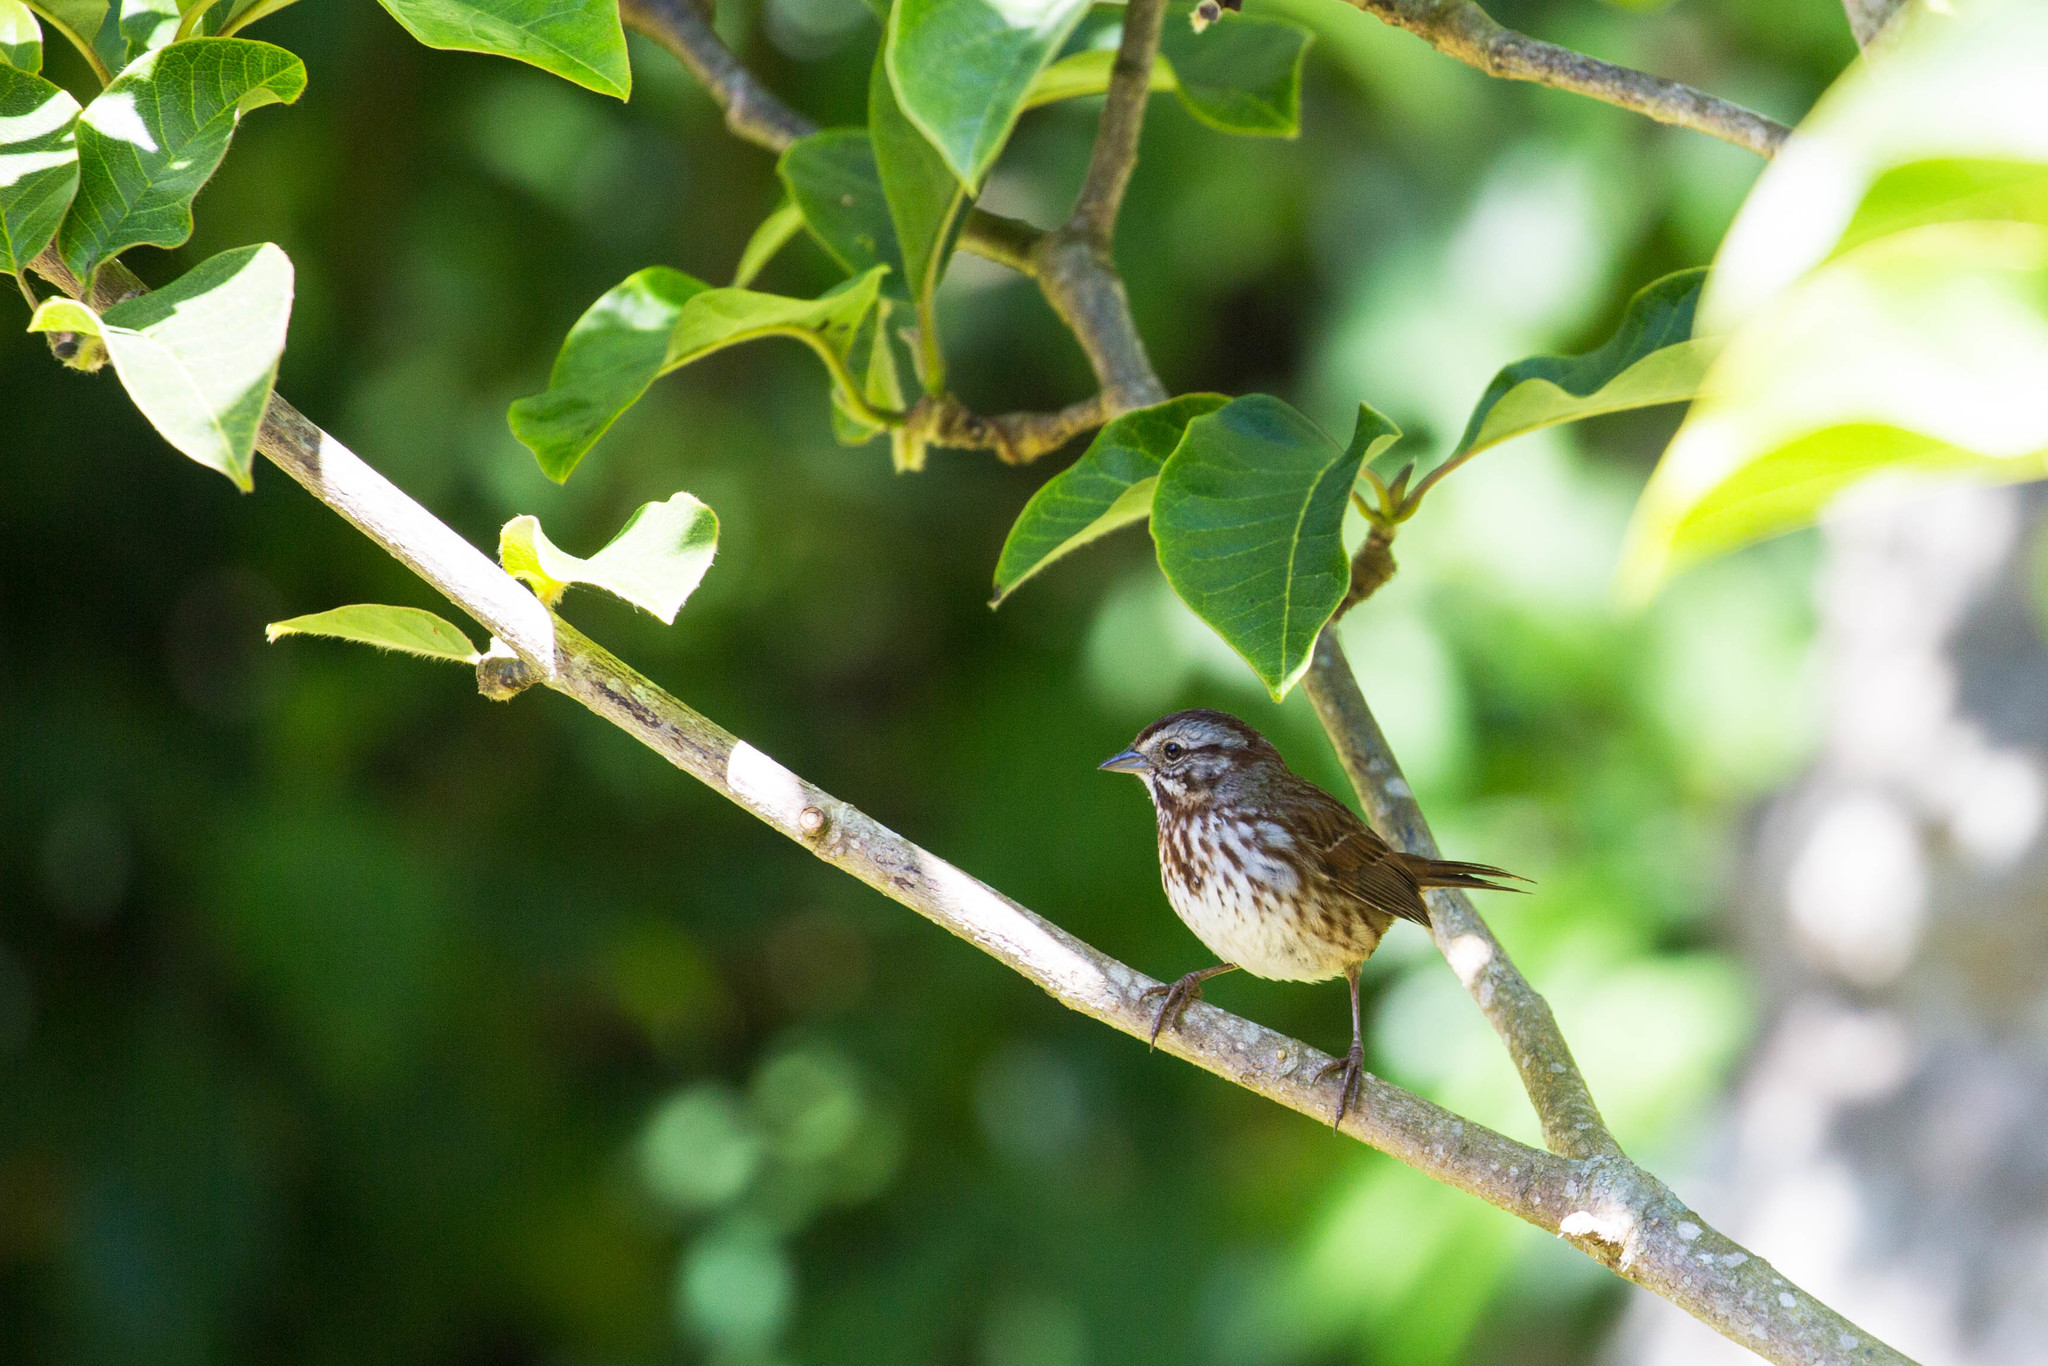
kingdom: Animalia
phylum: Chordata
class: Aves
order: Passeriformes
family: Passerellidae
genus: Melospiza
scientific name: Melospiza melodia
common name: Song sparrow
